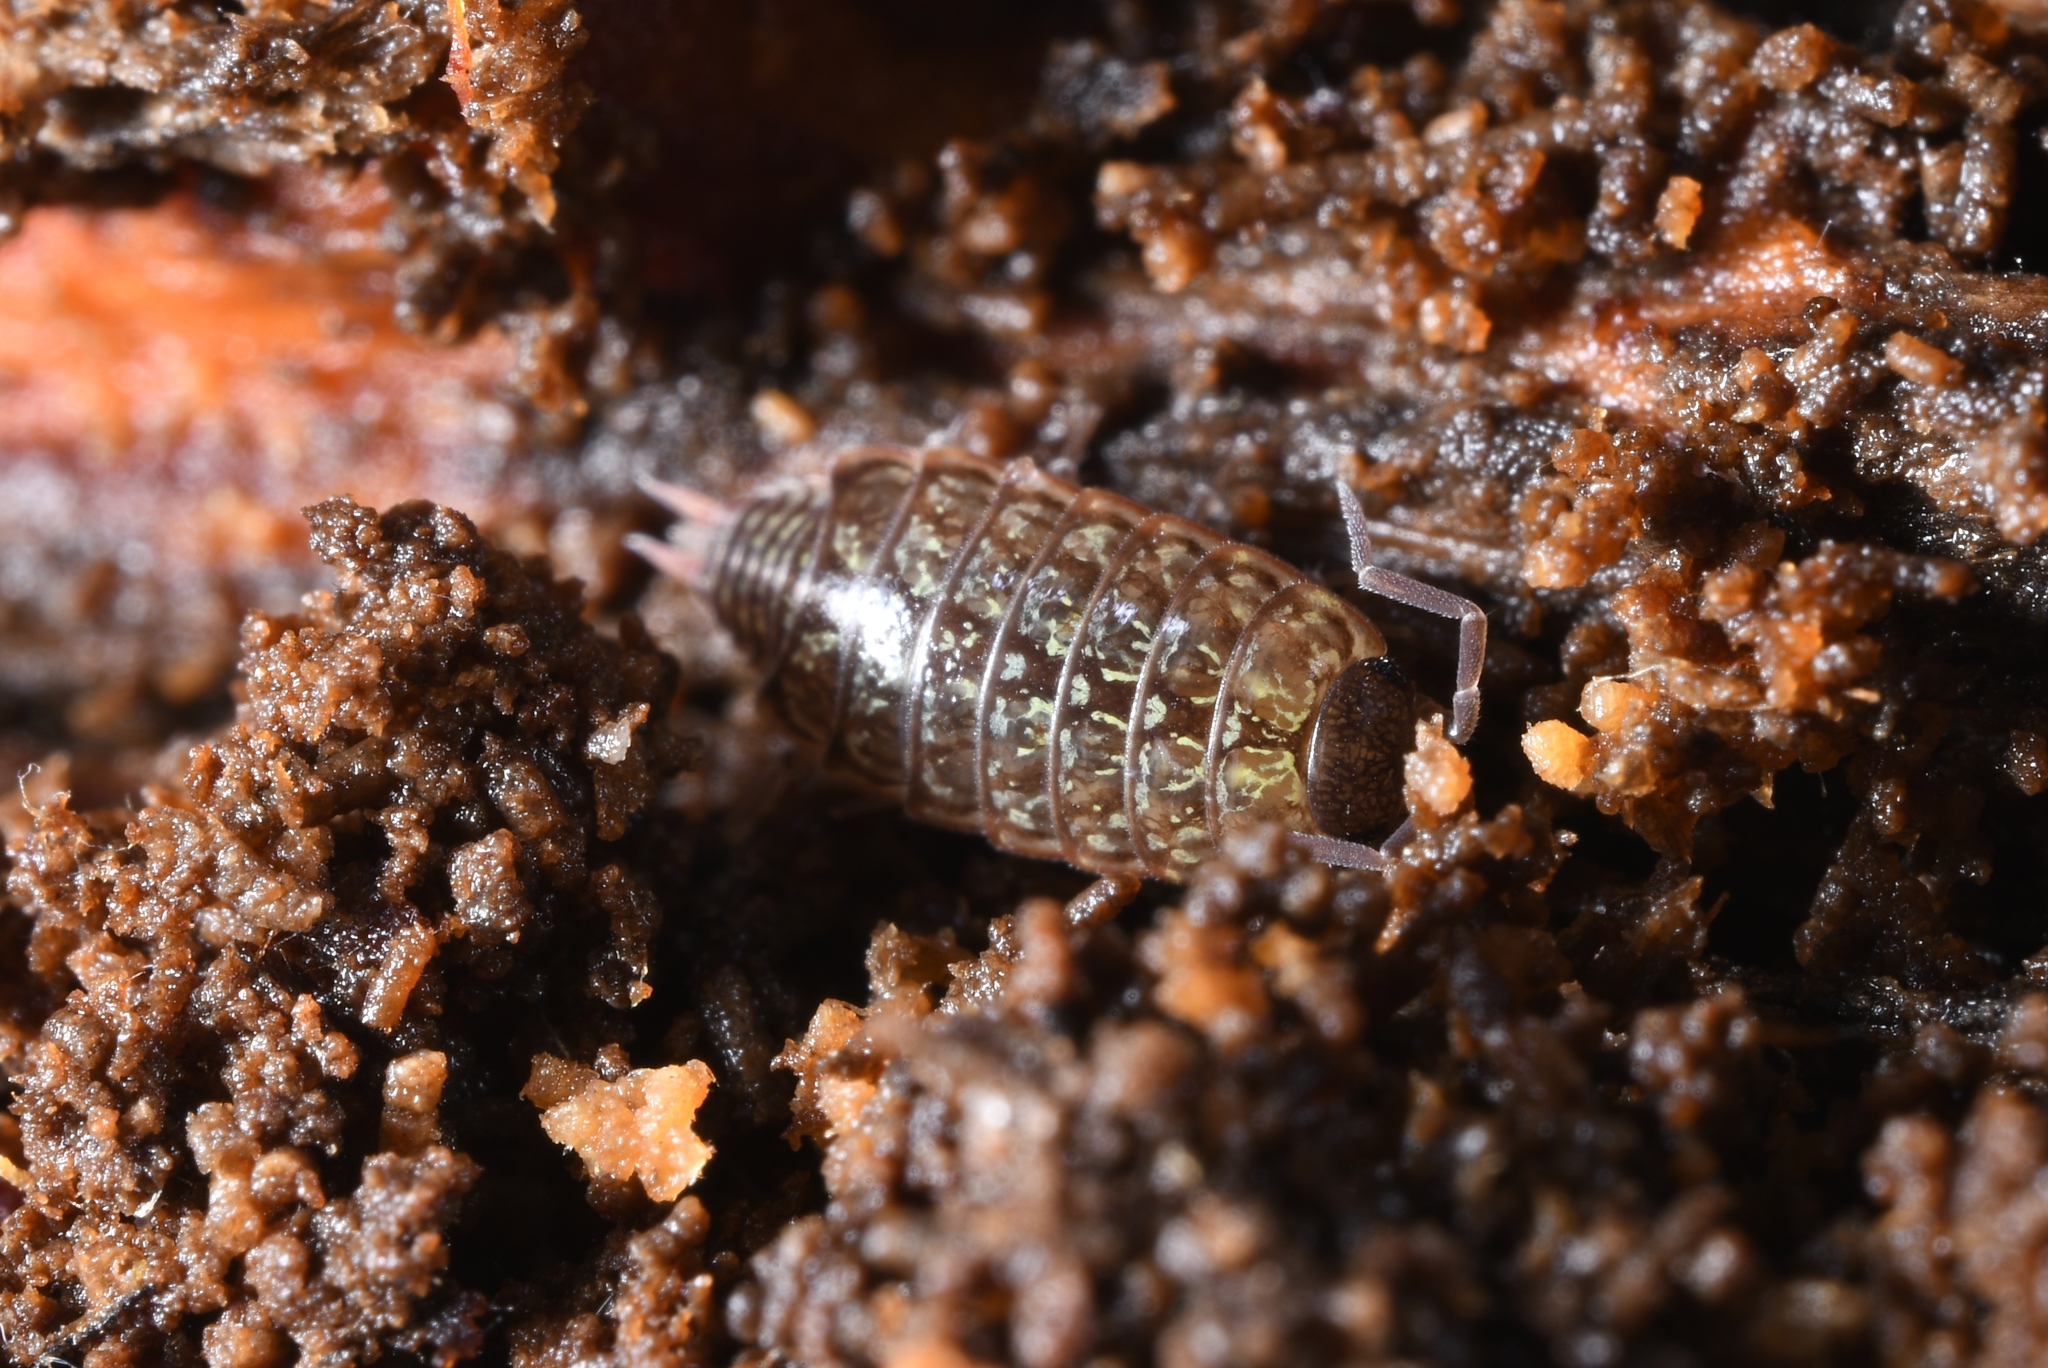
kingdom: Animalia
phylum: Arthropoda
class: Malacostraca
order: Isopoda
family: Philosciidae
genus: Philoscia
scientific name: Philoscia muscorum
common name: Common striped woodlouse
